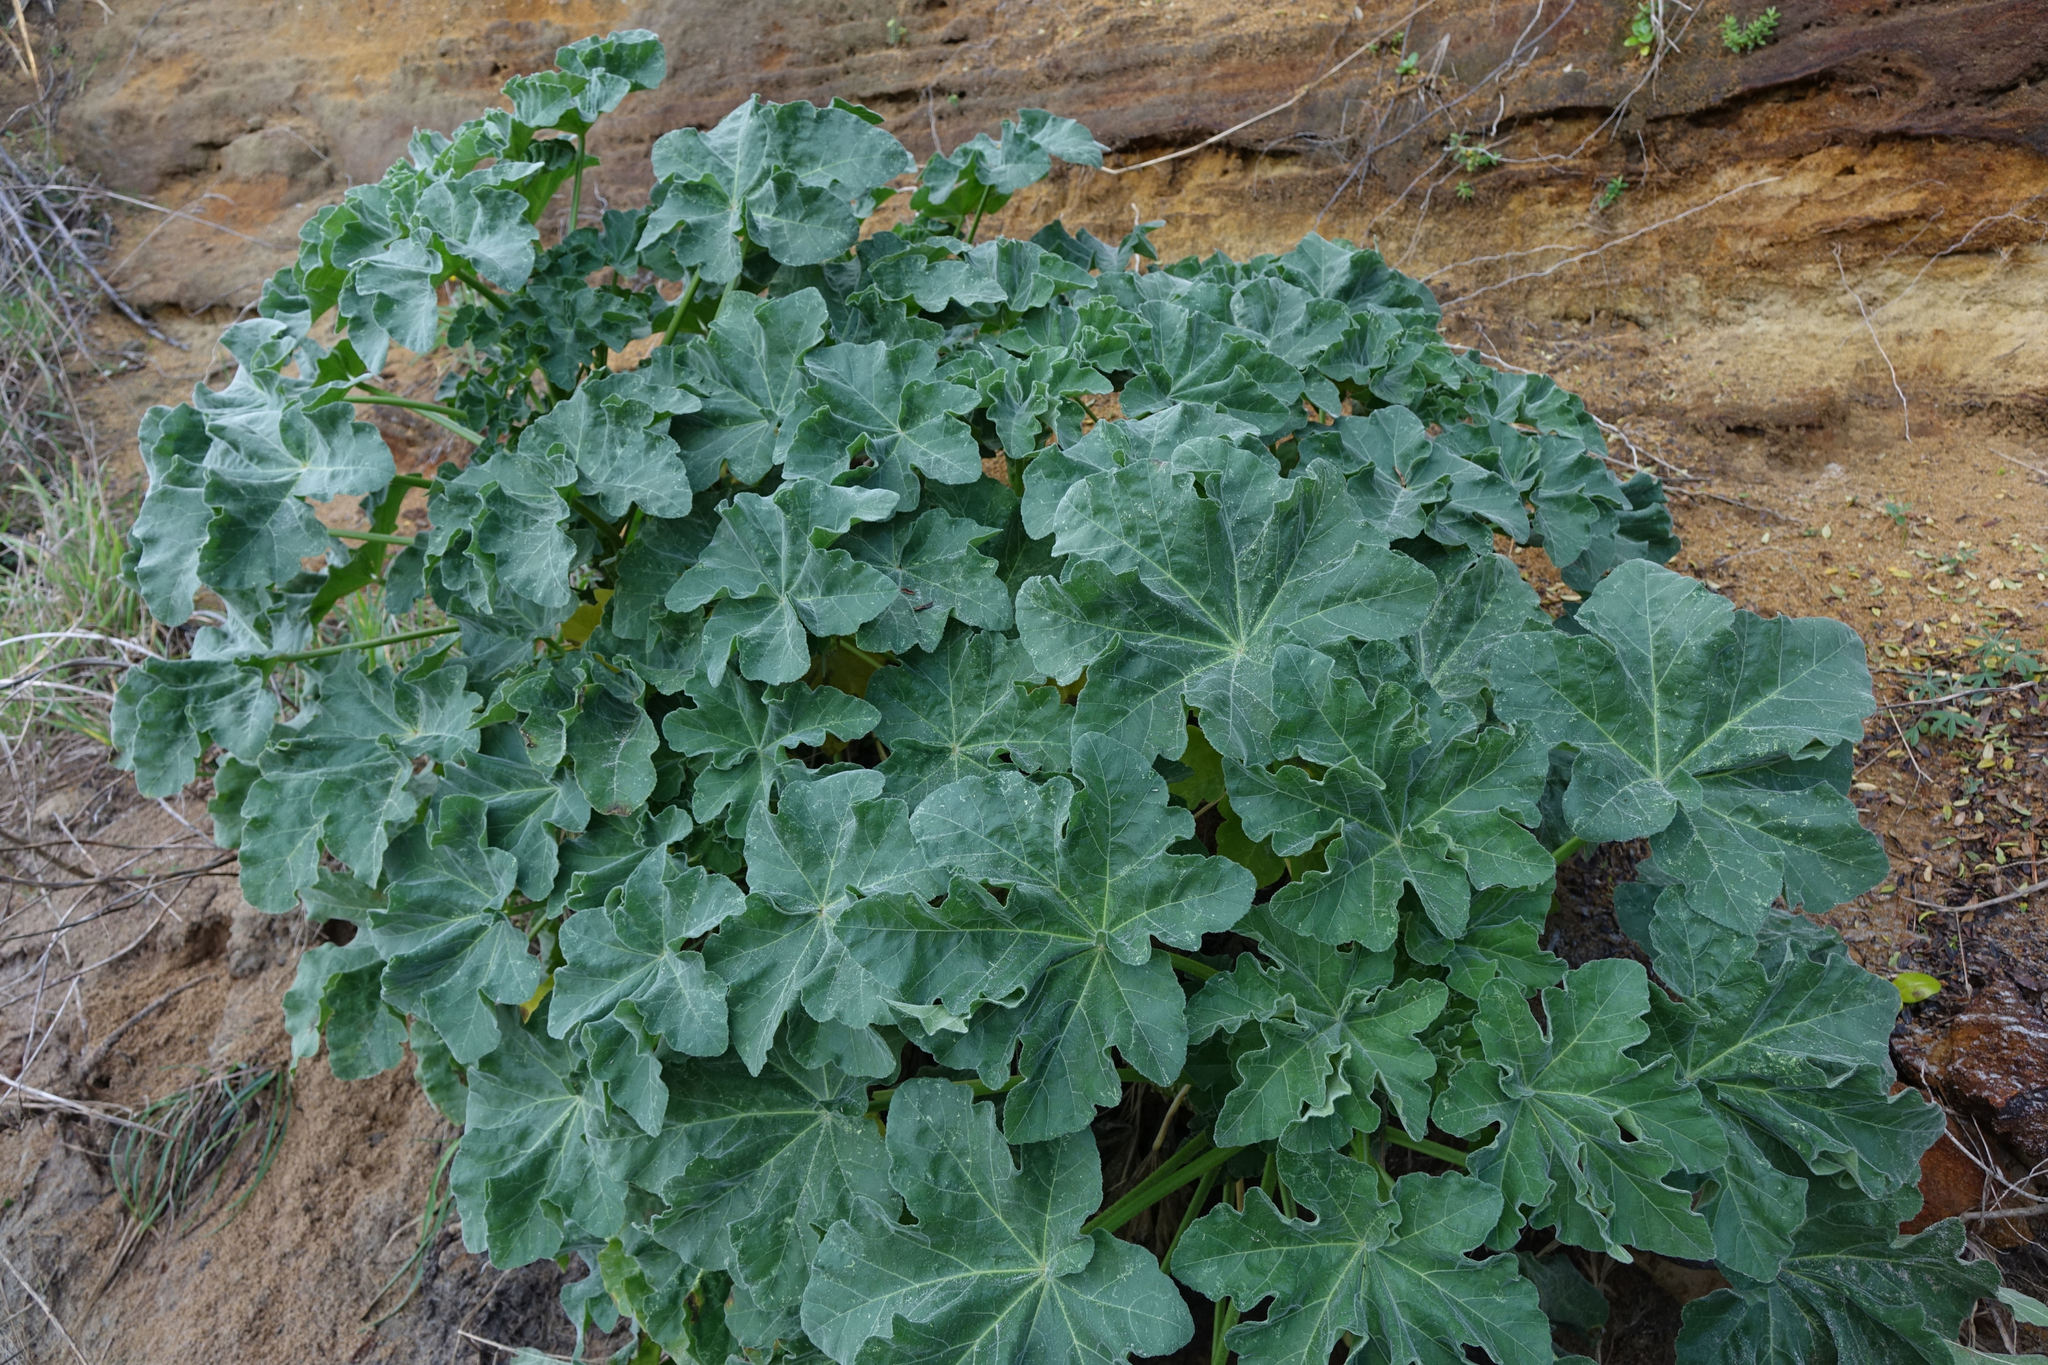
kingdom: Plantae
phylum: Tracheophyta
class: Magnoliopsida
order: Malvales
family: Malvaceae
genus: Malva
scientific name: Malva arborea
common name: Tree mallow
